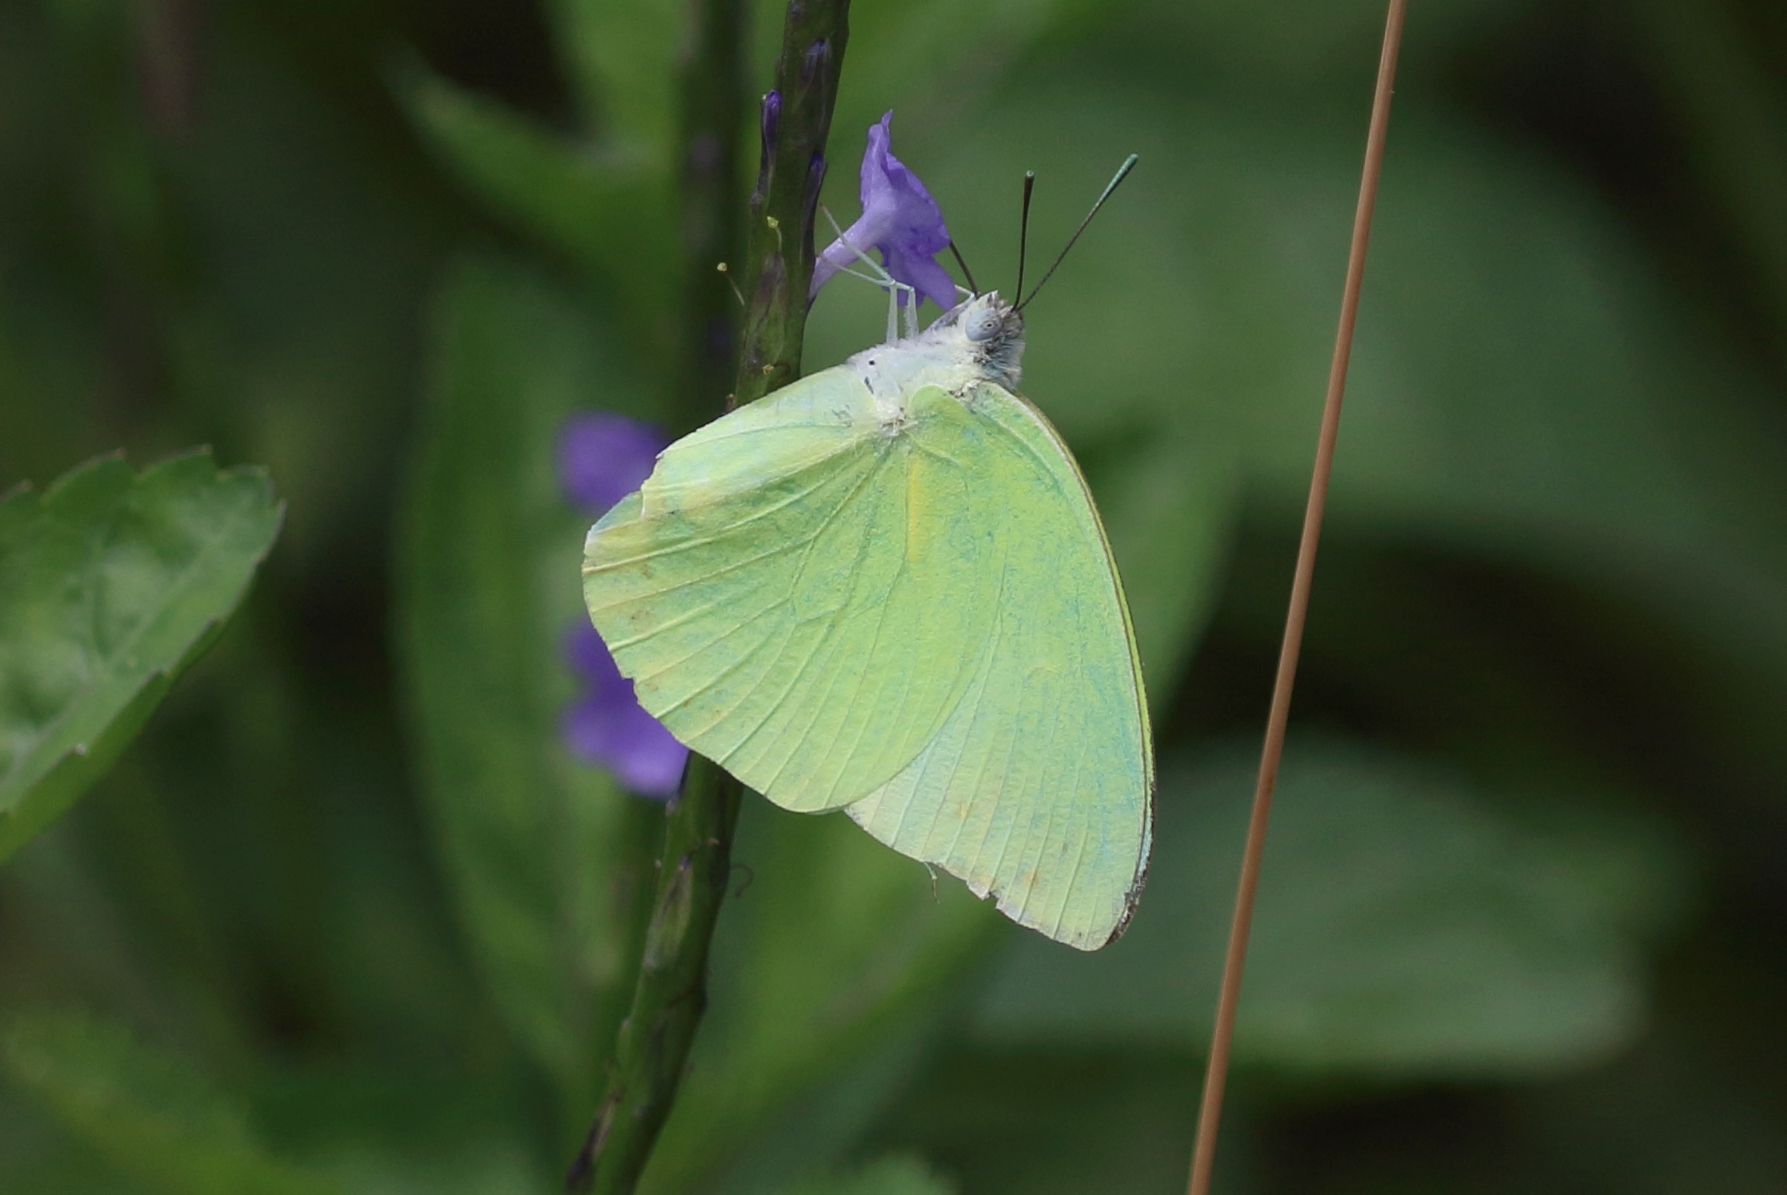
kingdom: Animalia
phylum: Arthropoda
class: Insecta
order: Lepidoptera
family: Pieridae
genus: Catopsilia
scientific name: Catopsilia pomona
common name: Common emigrant
